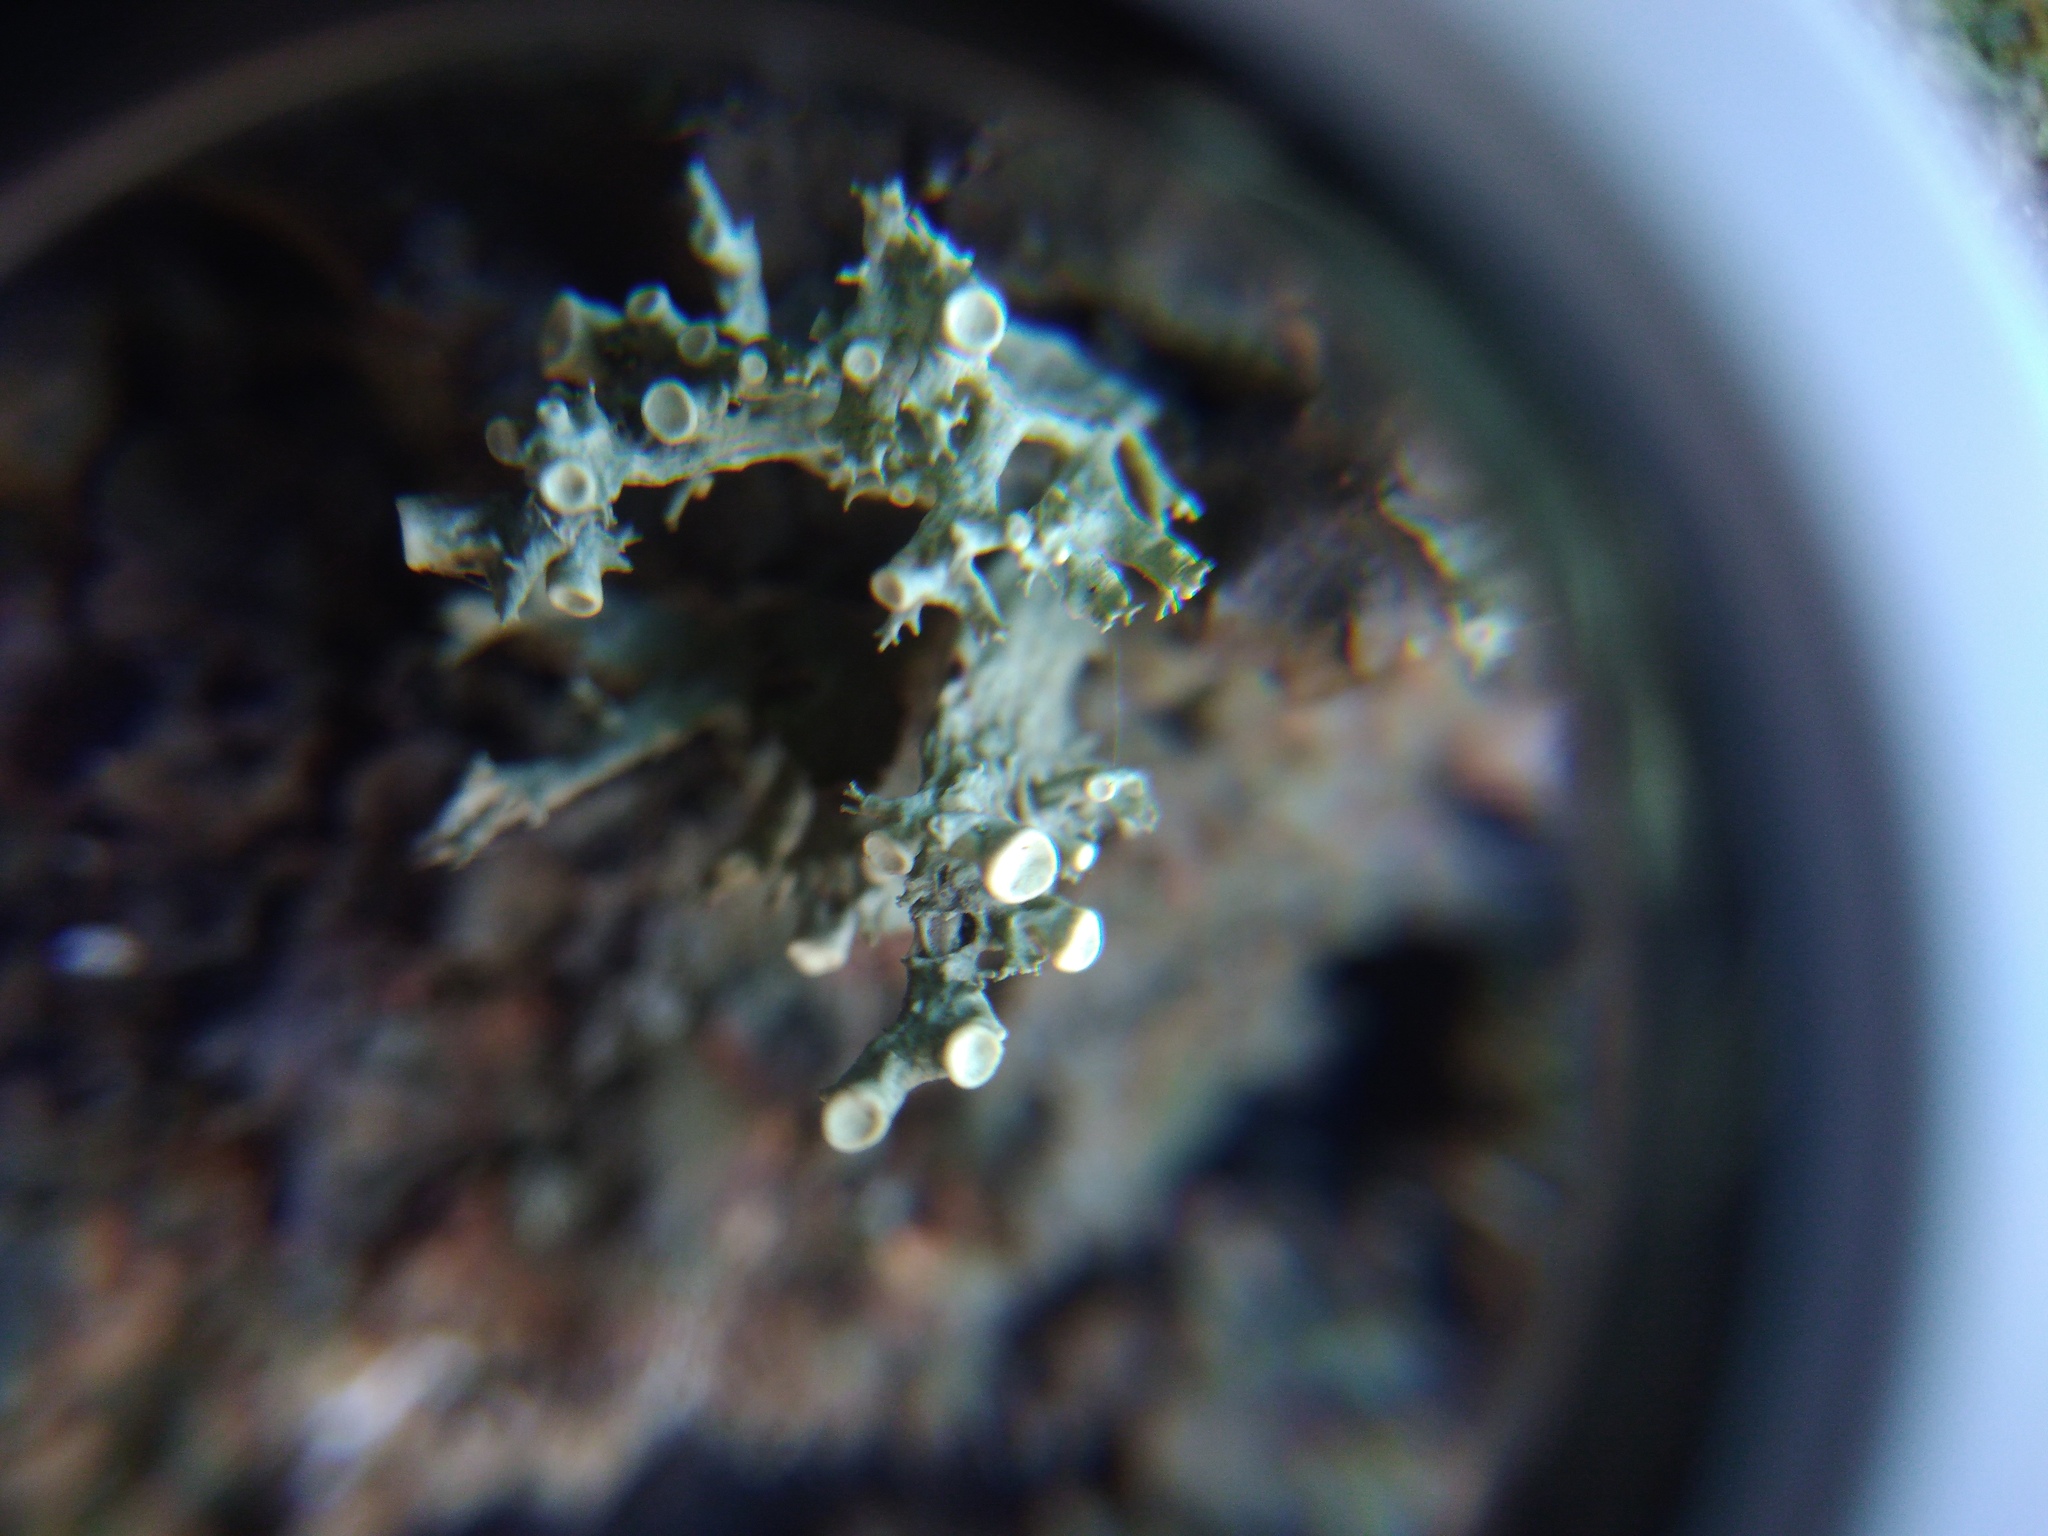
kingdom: Fungi
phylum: Ascomycota
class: Lecanoromycetes
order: Lecanorales
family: Ramalinaceae
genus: Ramalina
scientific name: Ramalina fastigiata
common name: Dotted ribbon lichen
